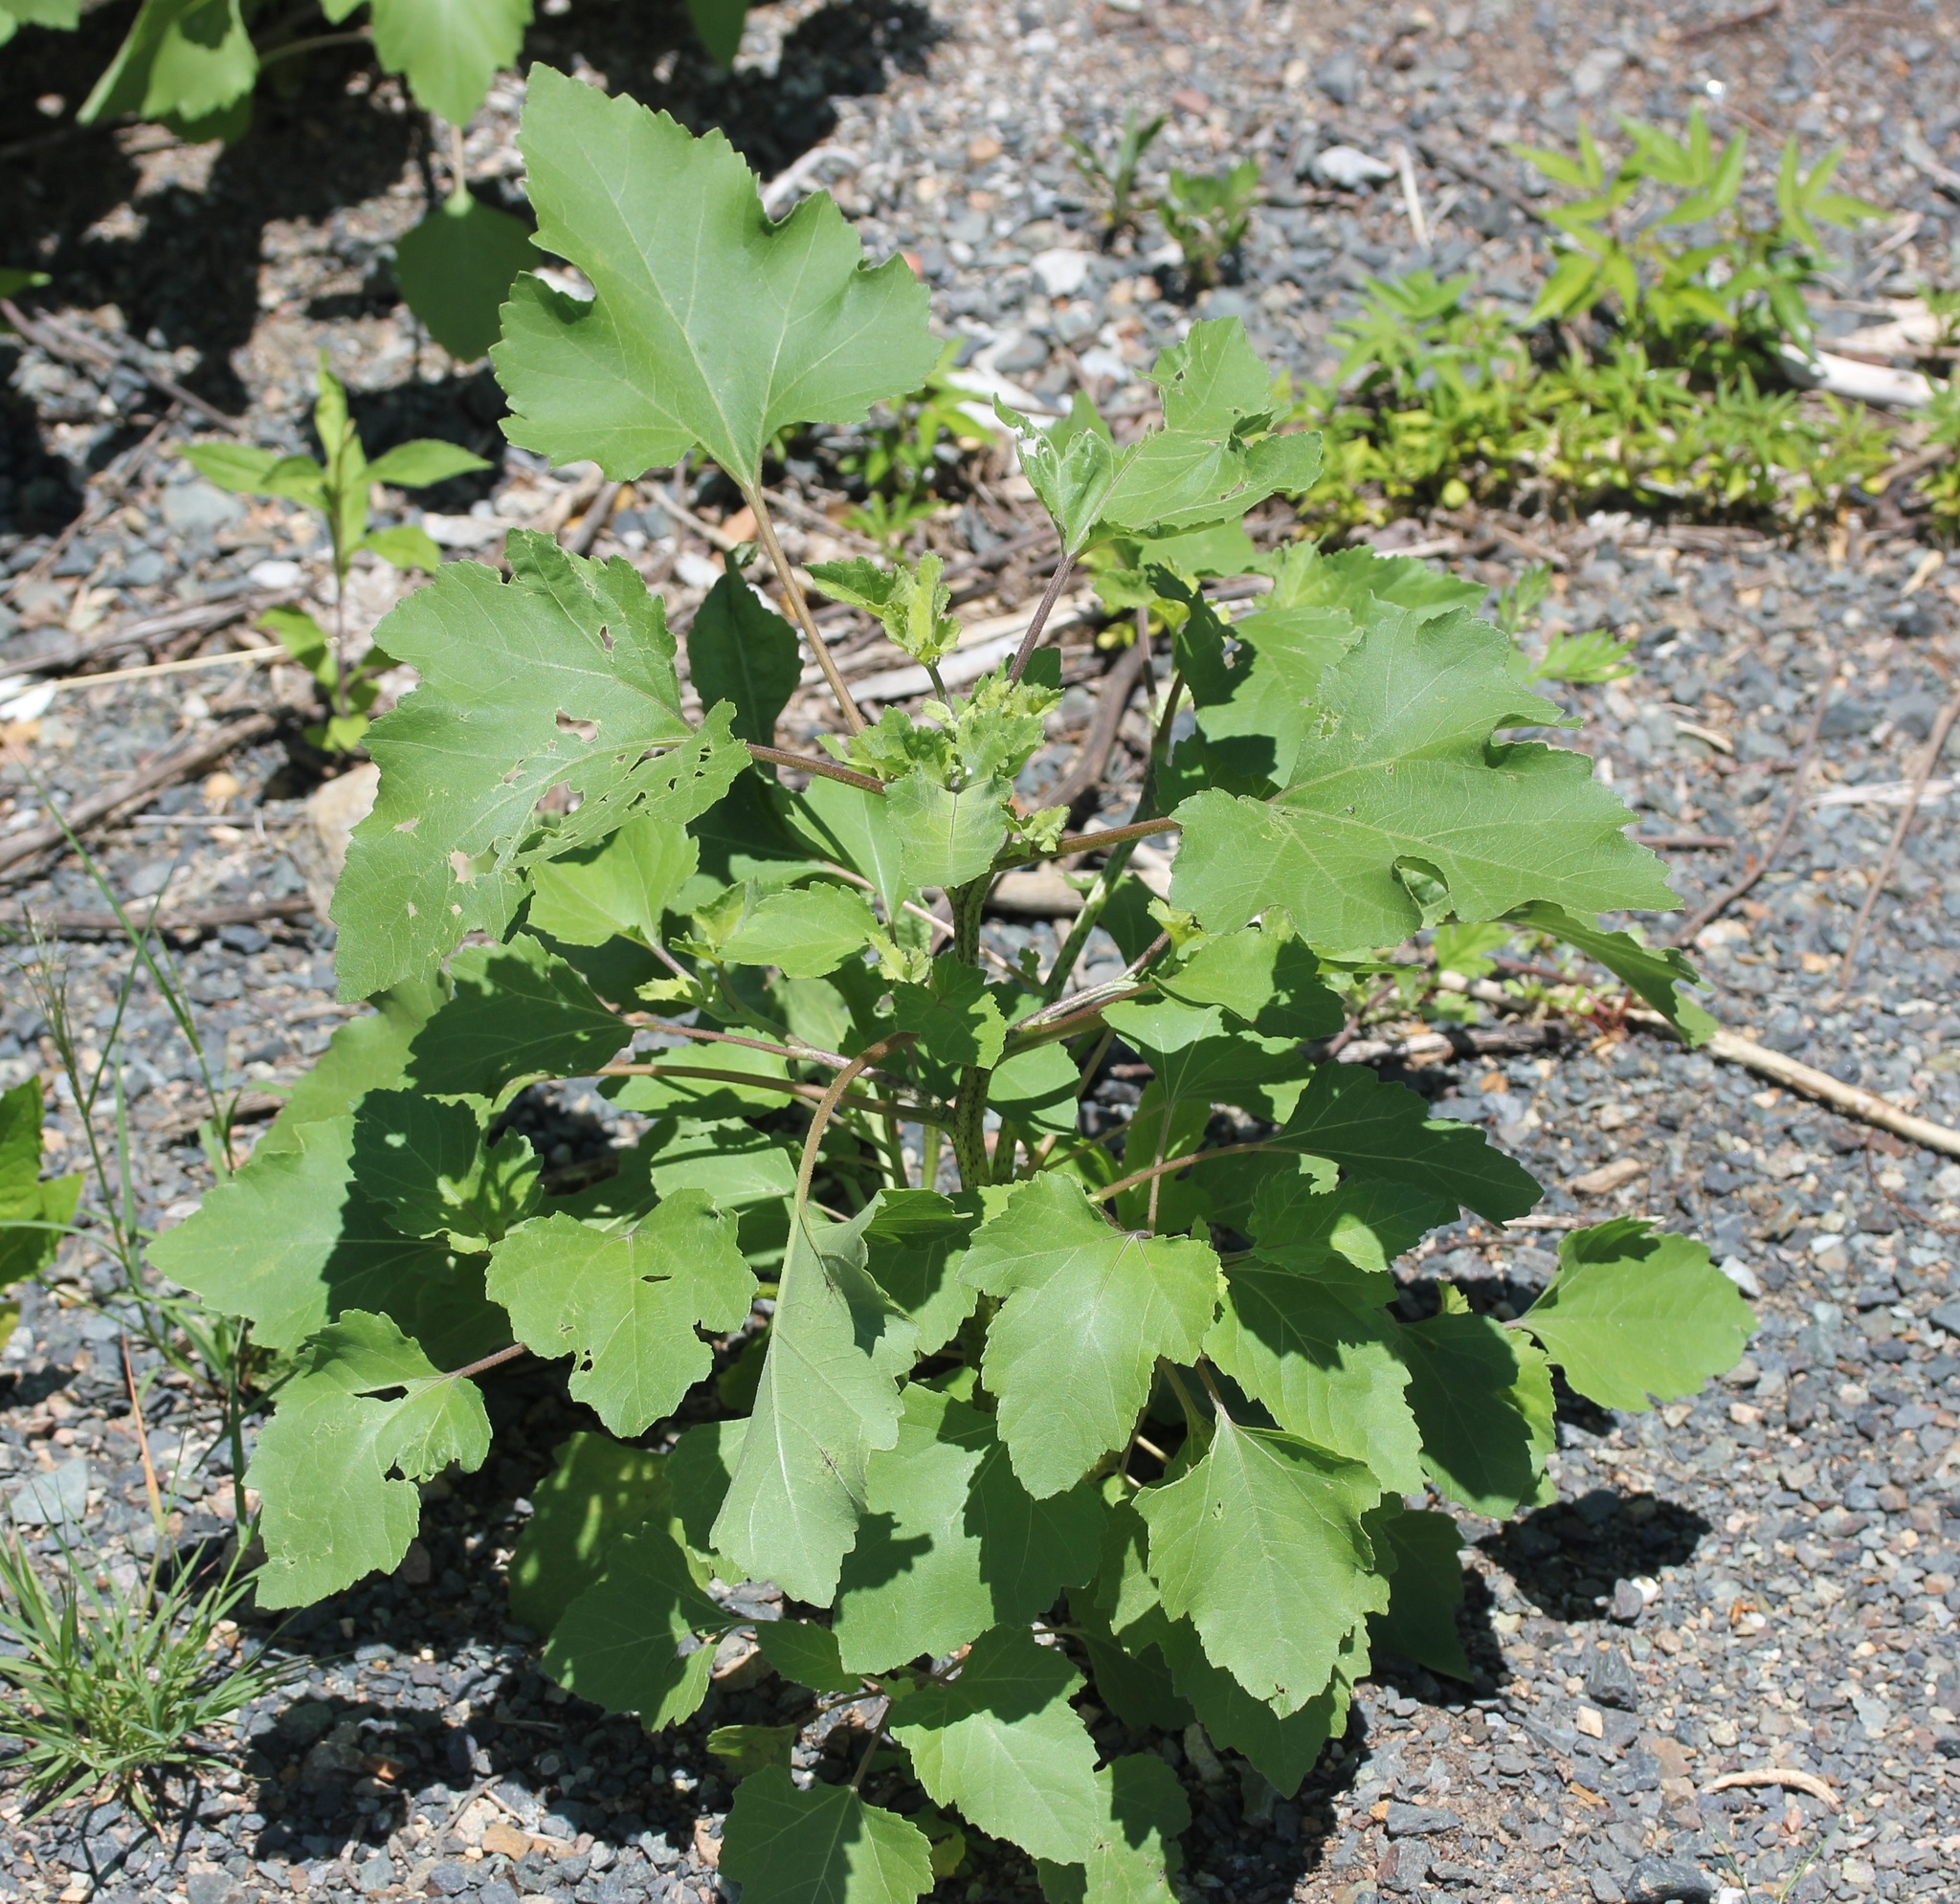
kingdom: Plantae
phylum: Tracheophyta
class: Magnoliopsida
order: Asterales
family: Asteraceae
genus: Xanthium
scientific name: Xanthium strumarium
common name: Rough cocklebur
